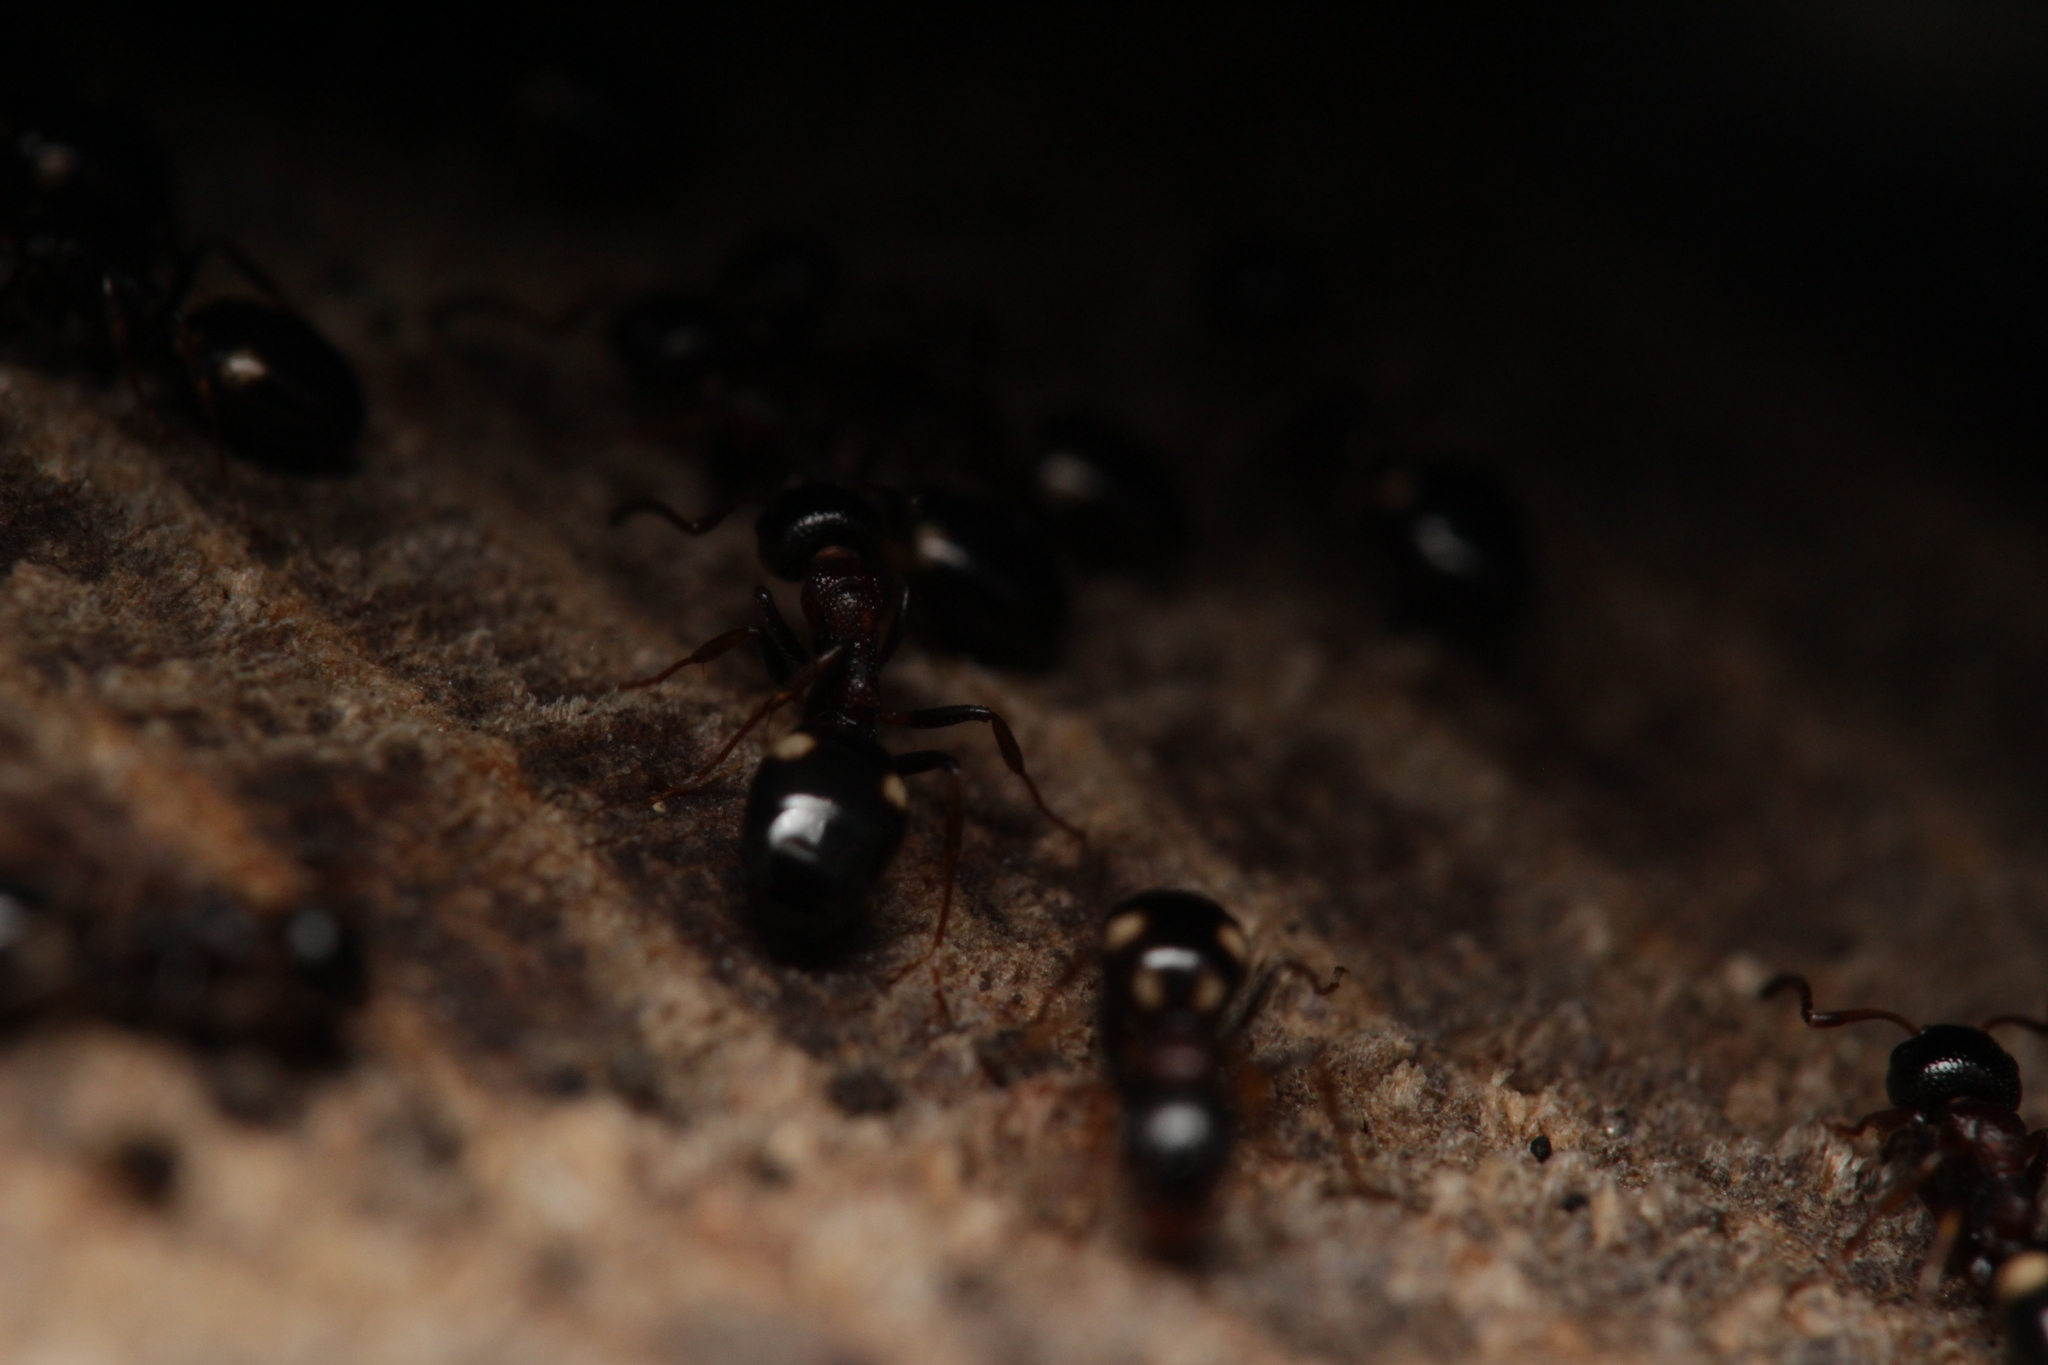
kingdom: Animalia
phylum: Arthropoda
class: Insecta
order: Hymenoptera
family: Formicidae
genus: Dolichoderus
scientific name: Dolichoderus quadripunctatus
